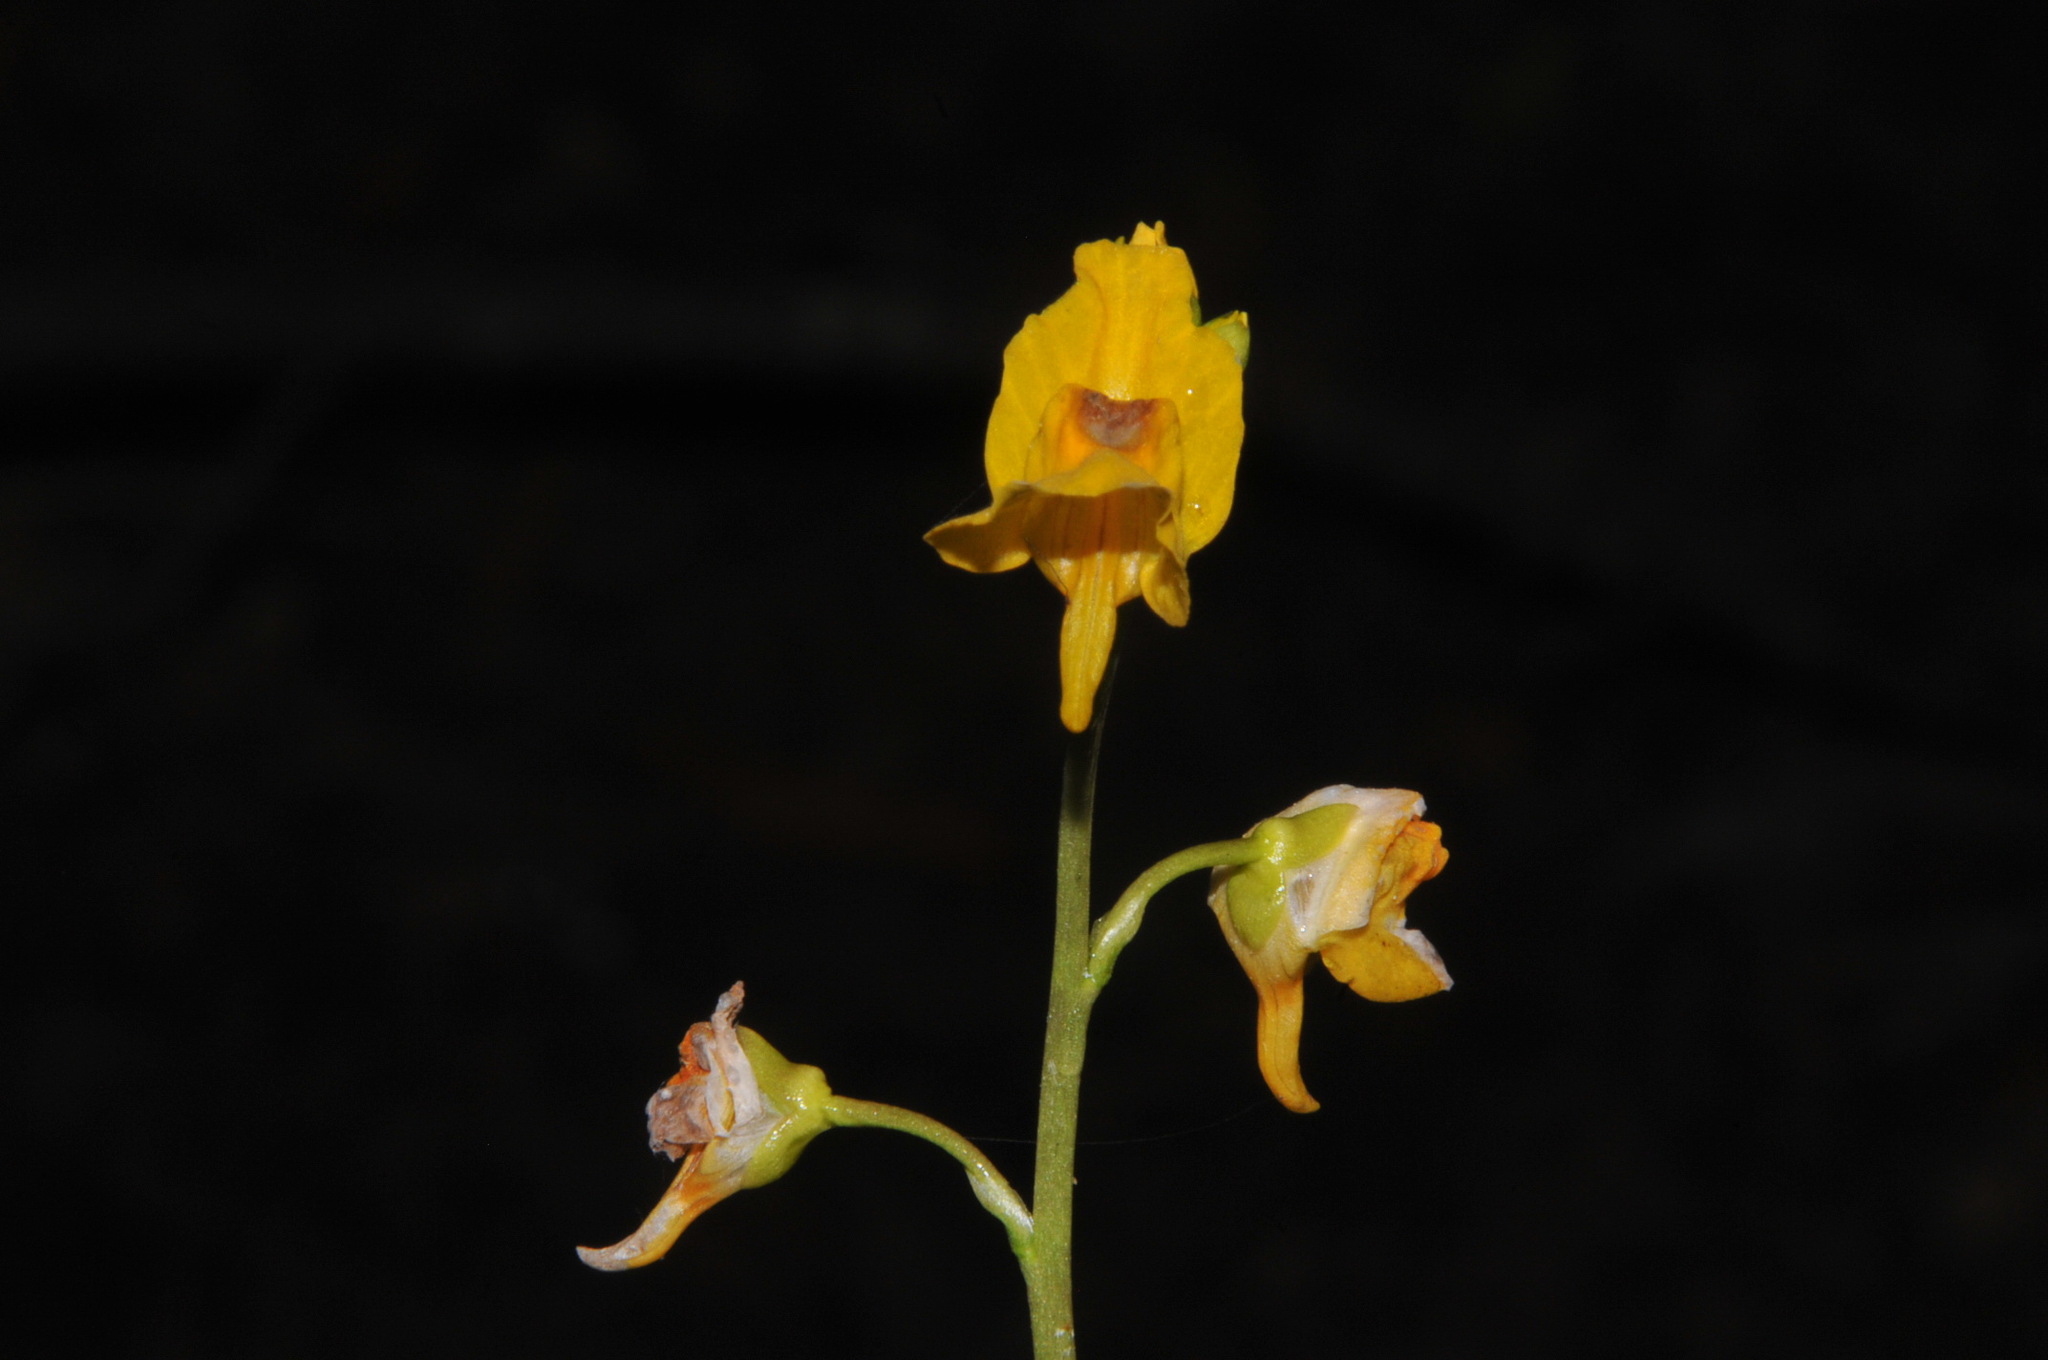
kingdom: Plantae
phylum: Tracheophyta
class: Magnoliopsida
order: Lamiales
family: Lentibulariaceae
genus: Utricularia
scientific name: Utricularia macrorhiza
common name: Common bladderwort
